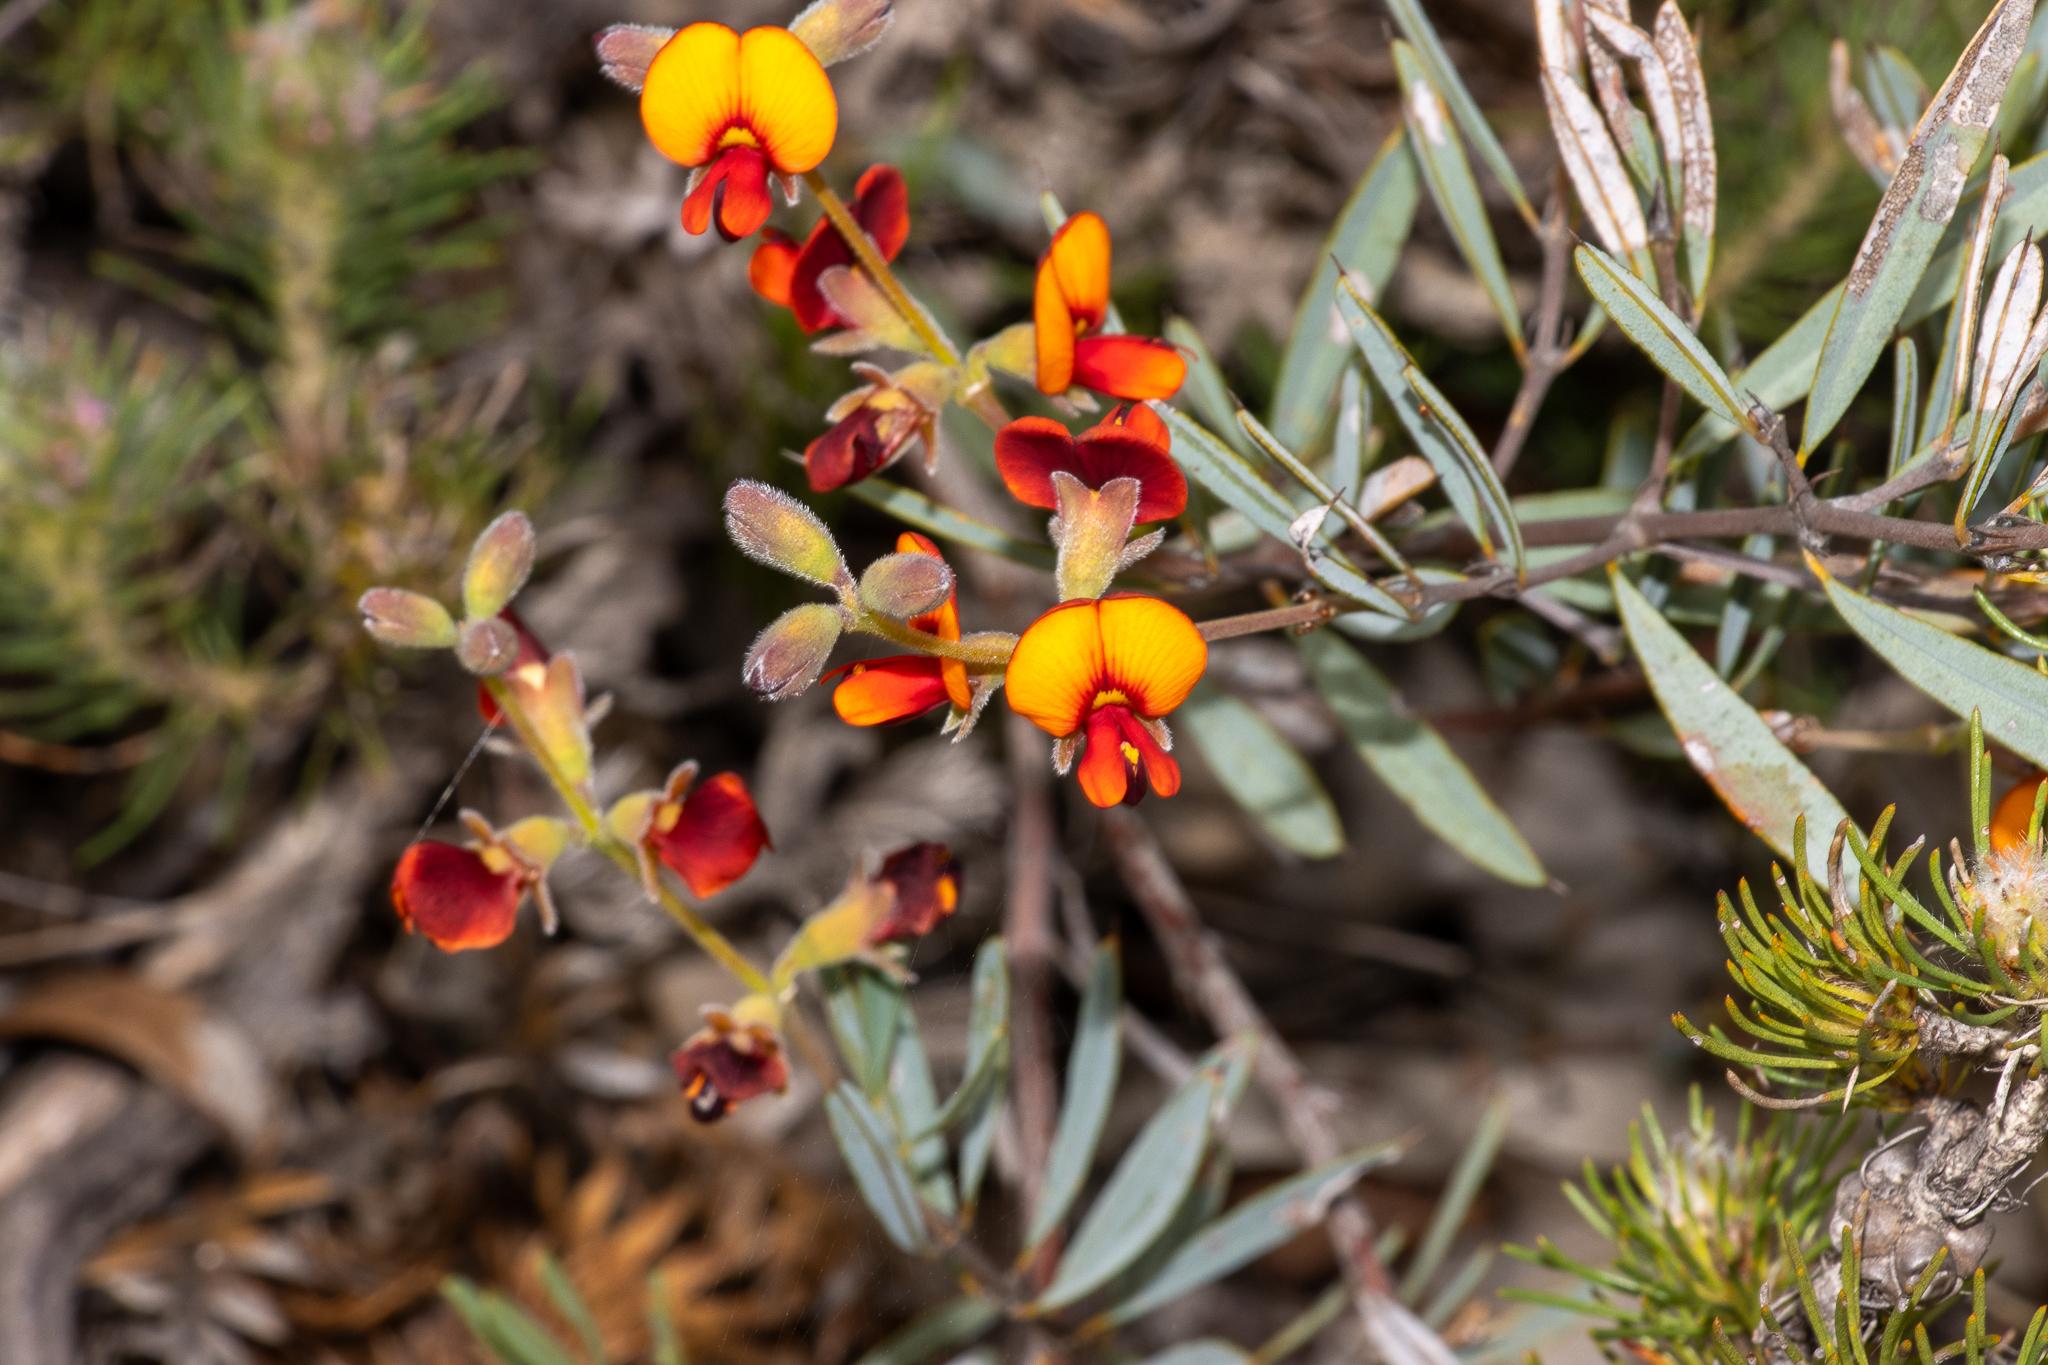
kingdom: Plantae
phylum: Tracheophyta
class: Magnoliopsida
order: Fabales
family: Fabaceae
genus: Gastrolobium
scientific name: Gastrolobium oxylobioides
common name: Champion bay poison
